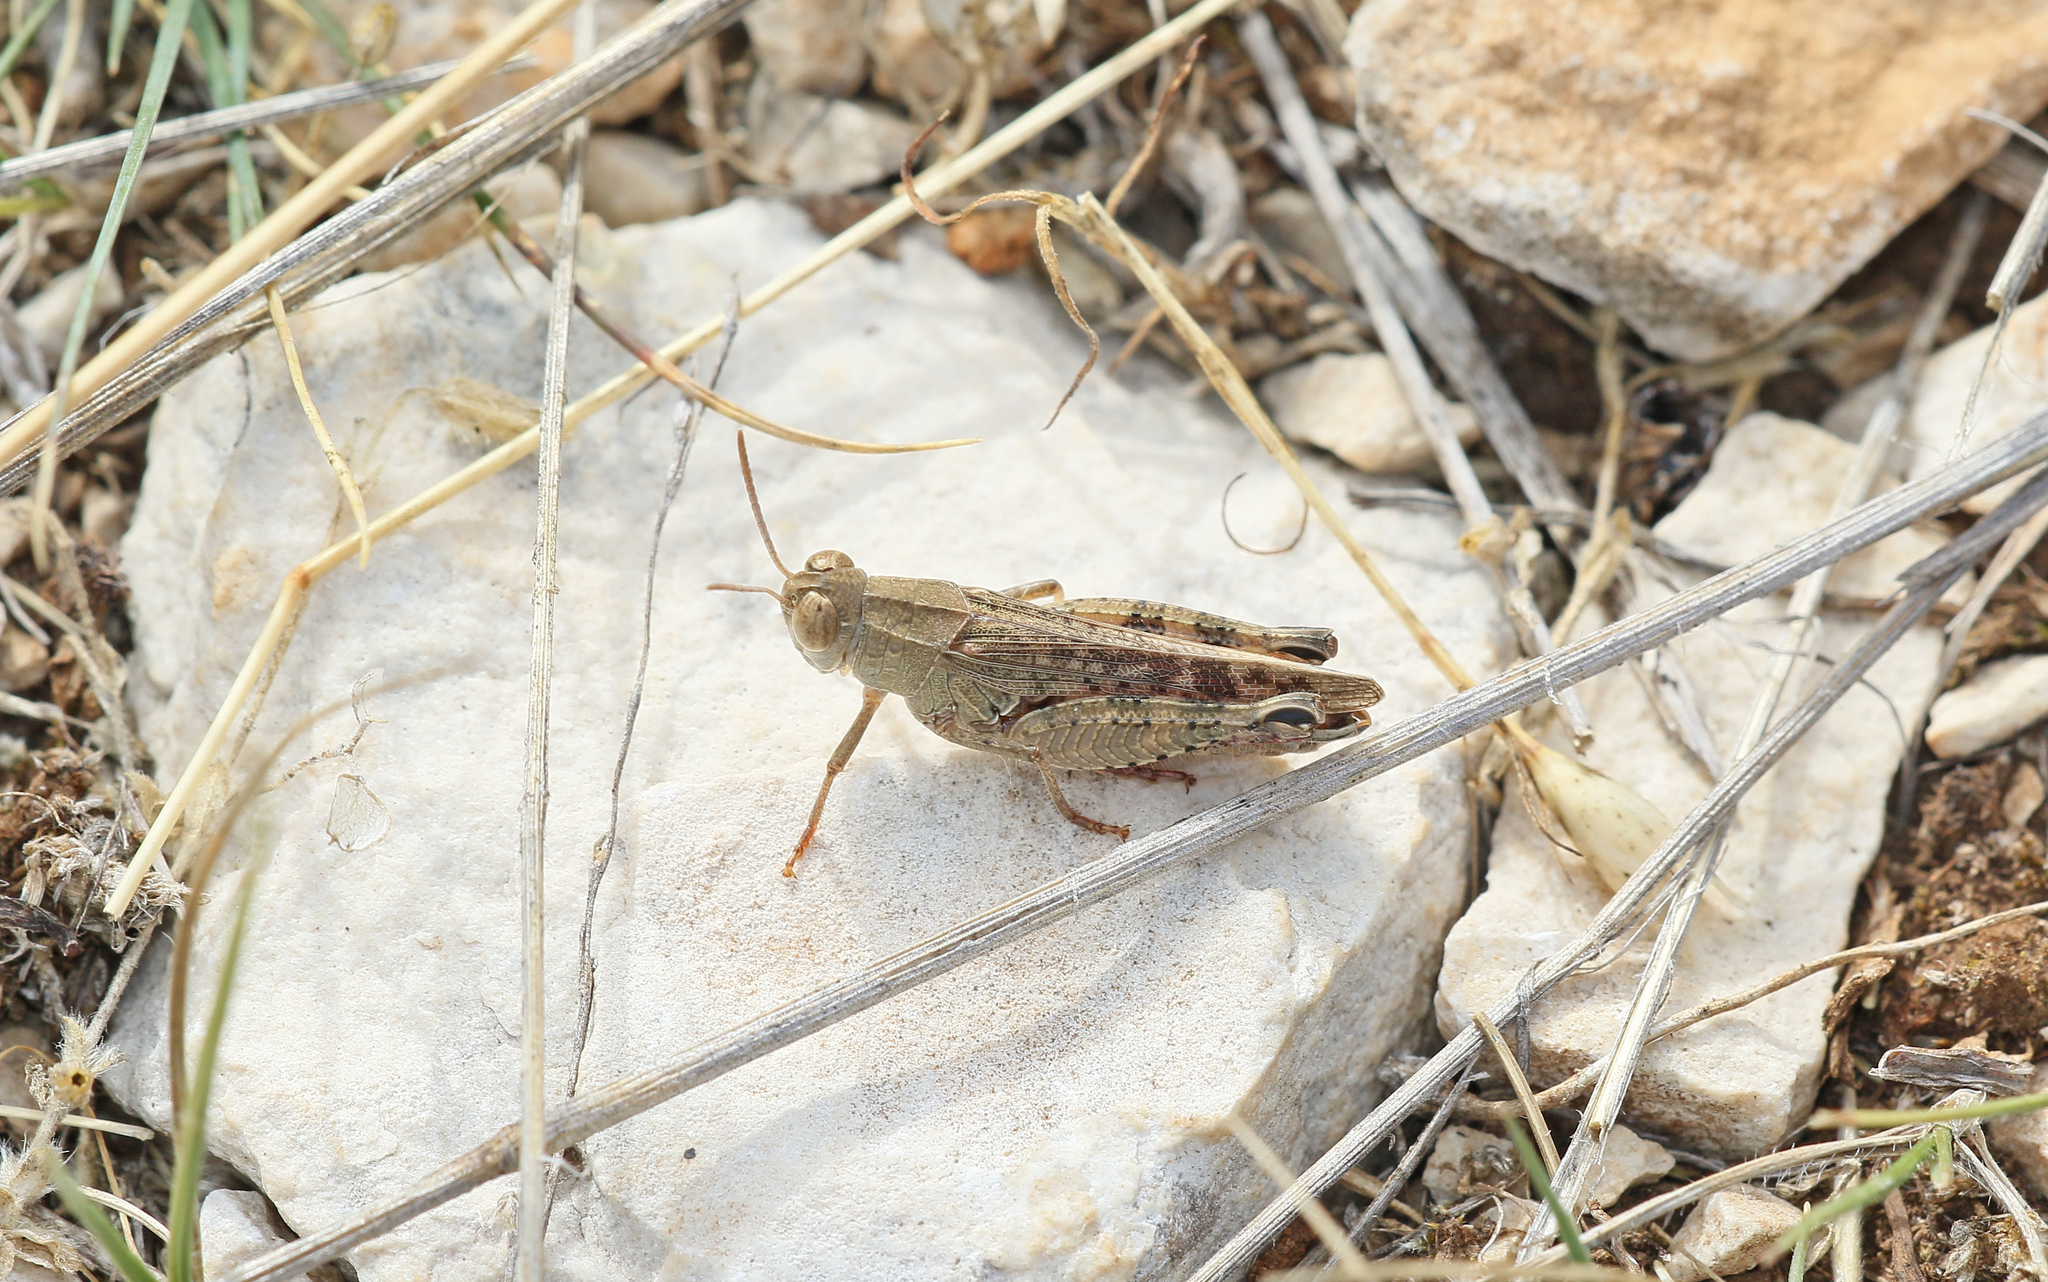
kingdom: Animalia
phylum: Arthropoda
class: Insecta
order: Orthoptera
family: Acrididae
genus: Calliptamus
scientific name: Calliptamus italicus
